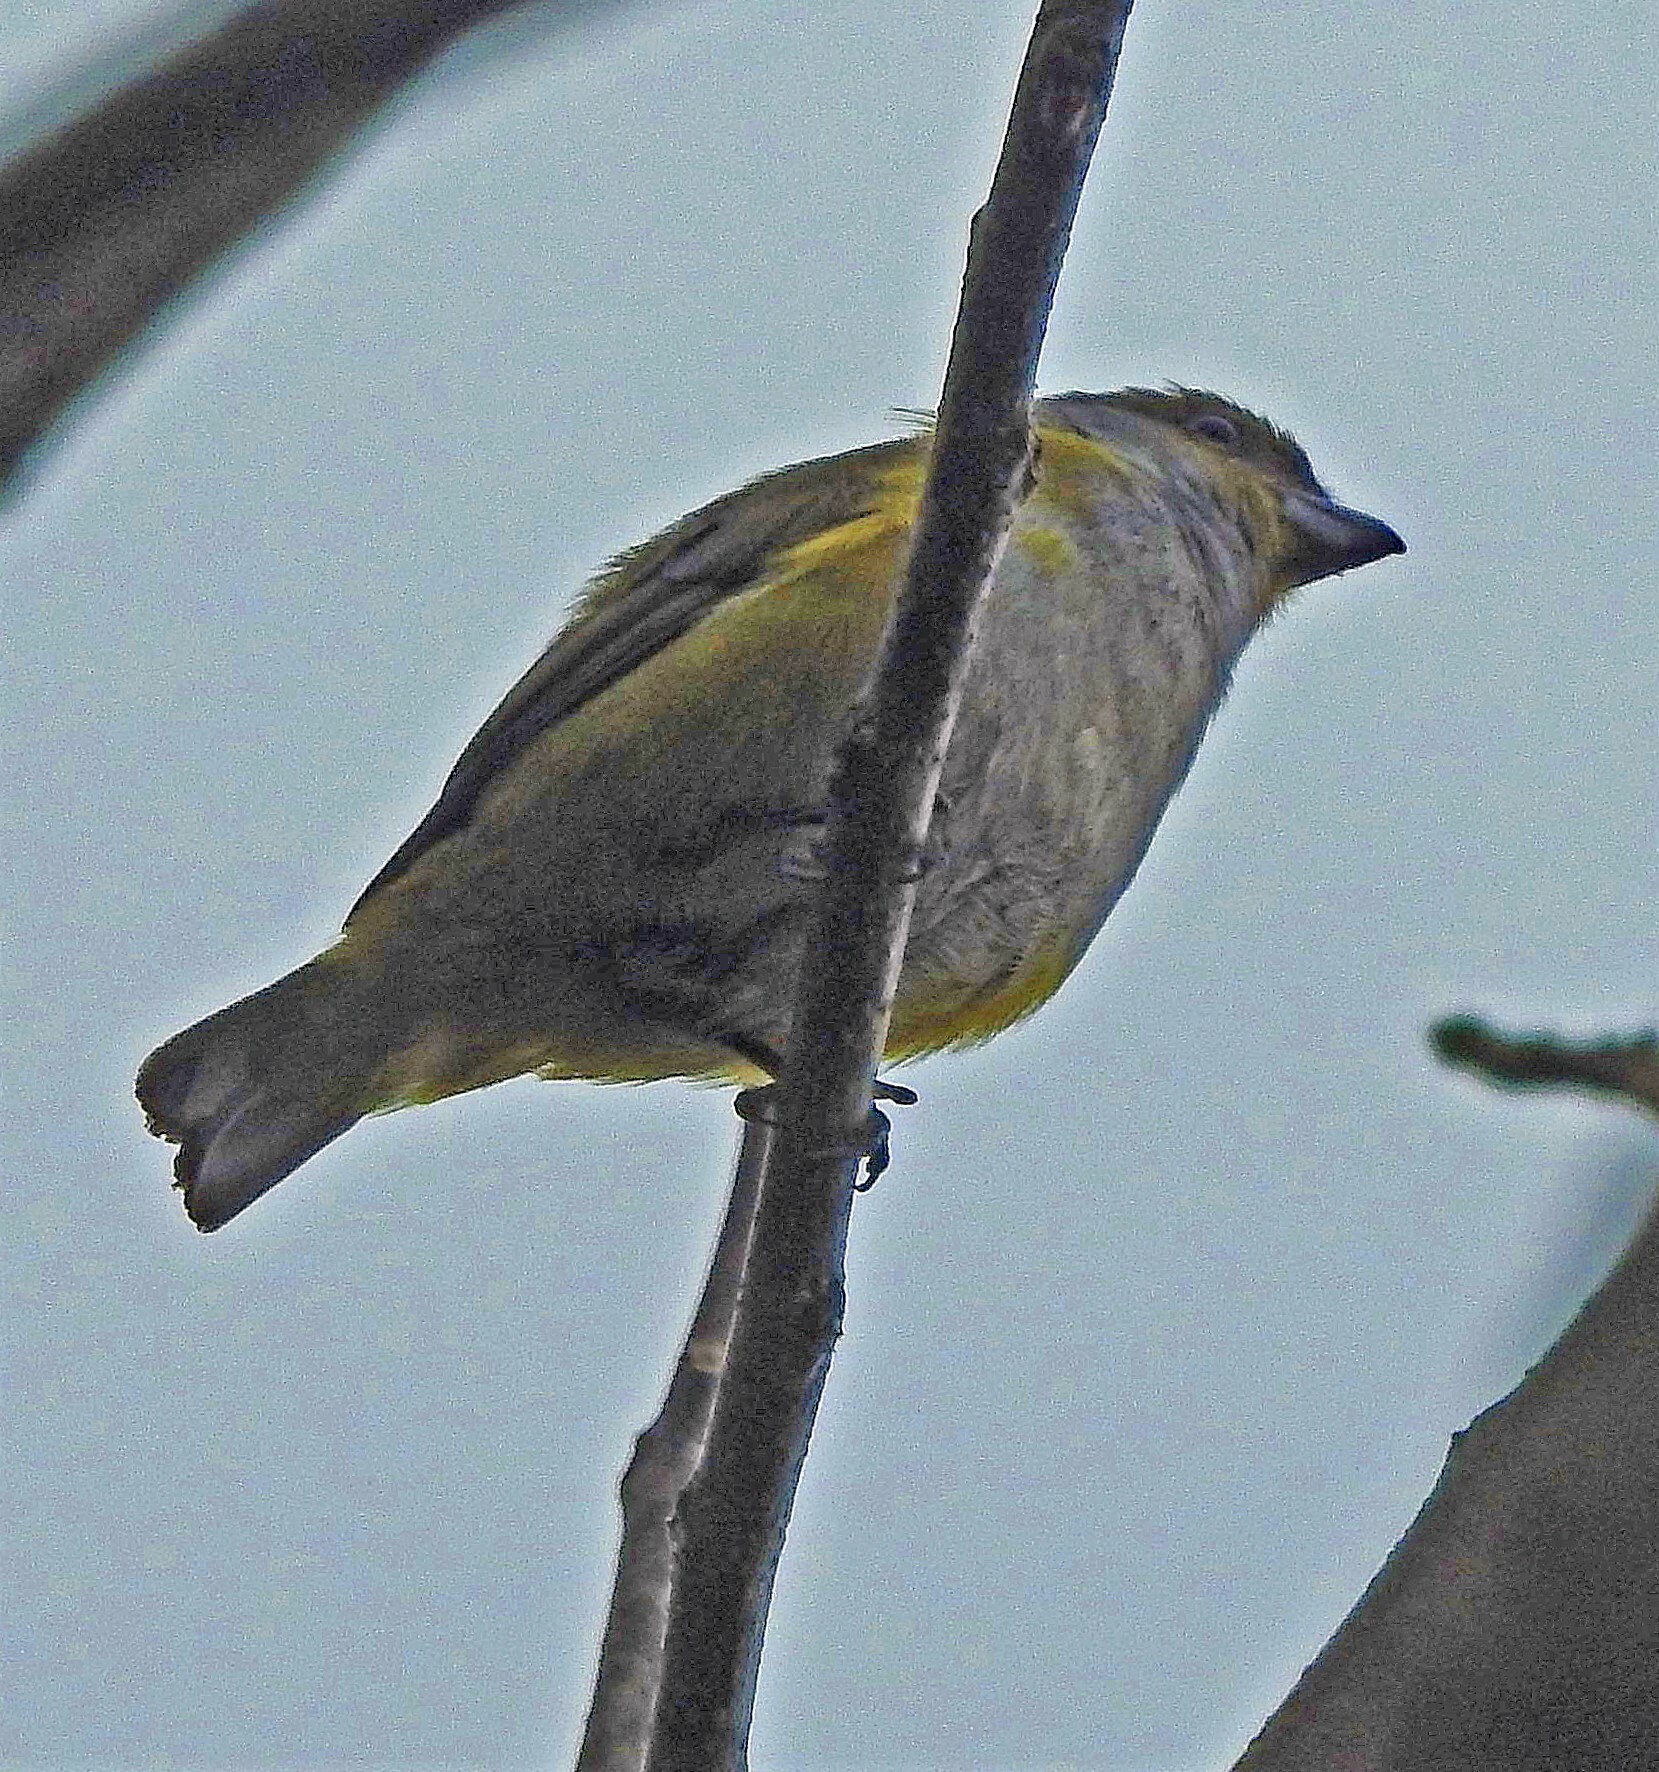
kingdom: Animalia
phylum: Chordata
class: Aves
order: Passeriformes
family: Fringillidae
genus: Euphonia
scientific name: Euphonia chalybea
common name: Green-chinned euphonia
